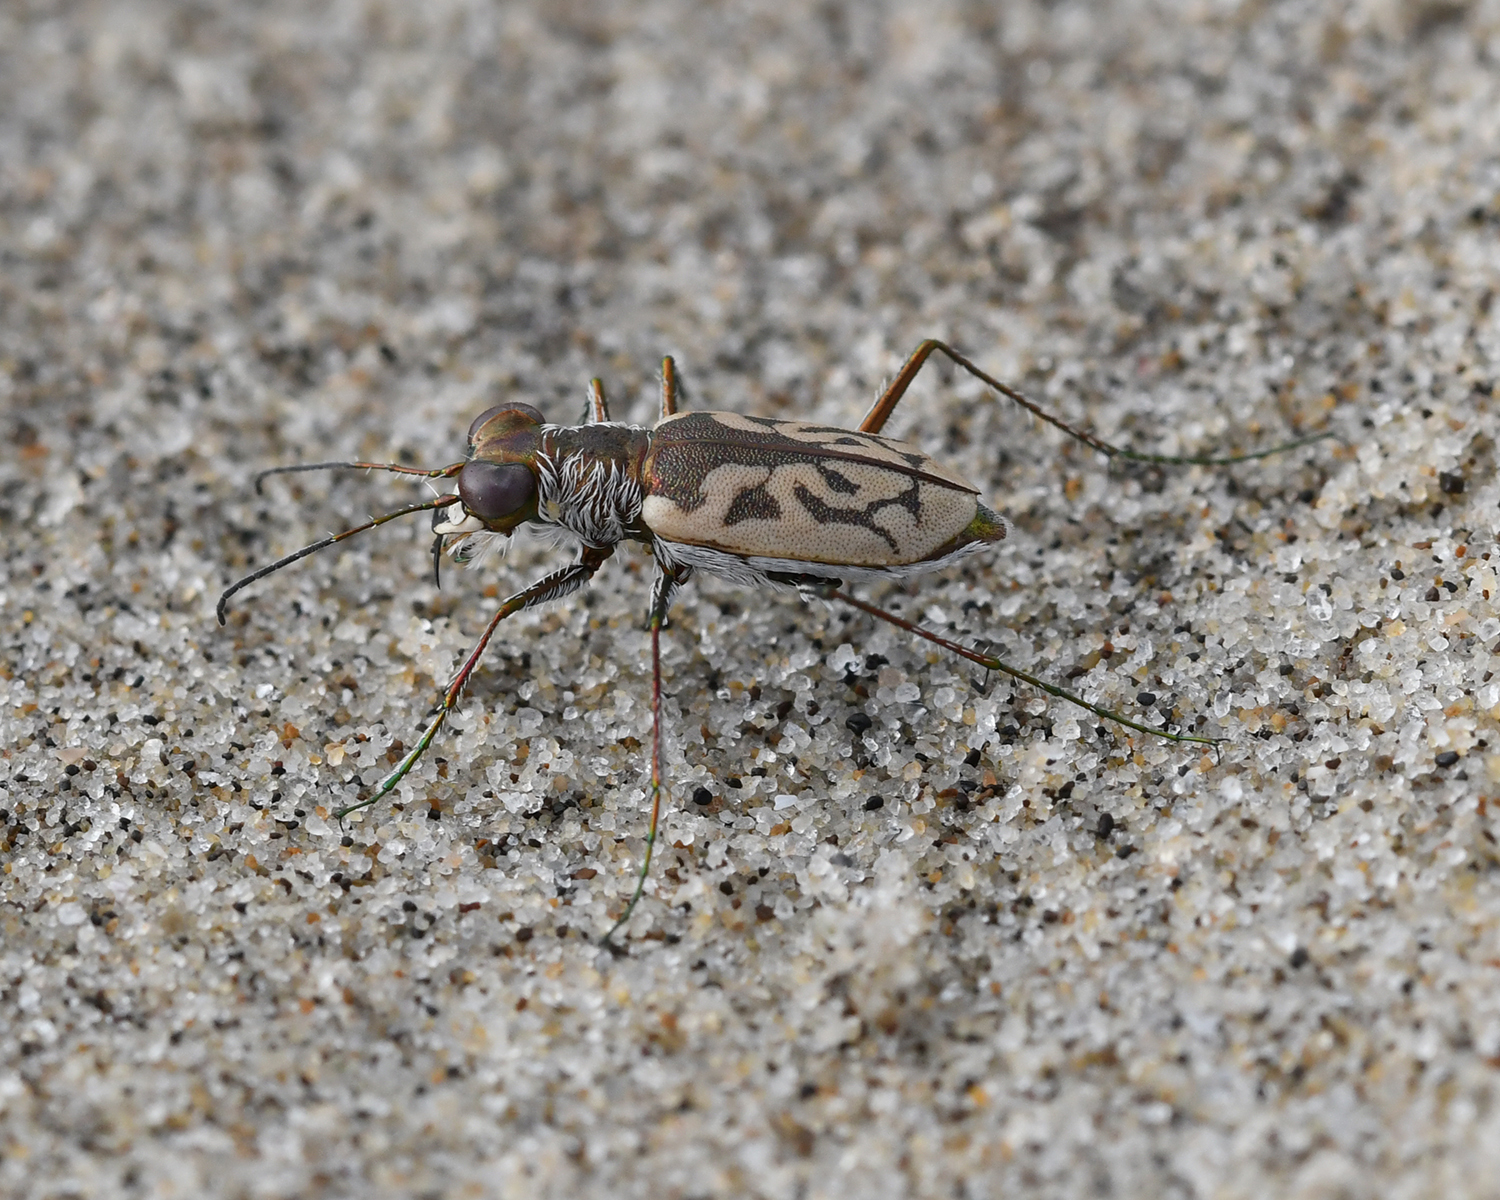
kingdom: Animalia
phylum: Arthropoda
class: Insecta
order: Coleoptera
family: Carabidae
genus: Cylindera
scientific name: Cylindera suturalis
